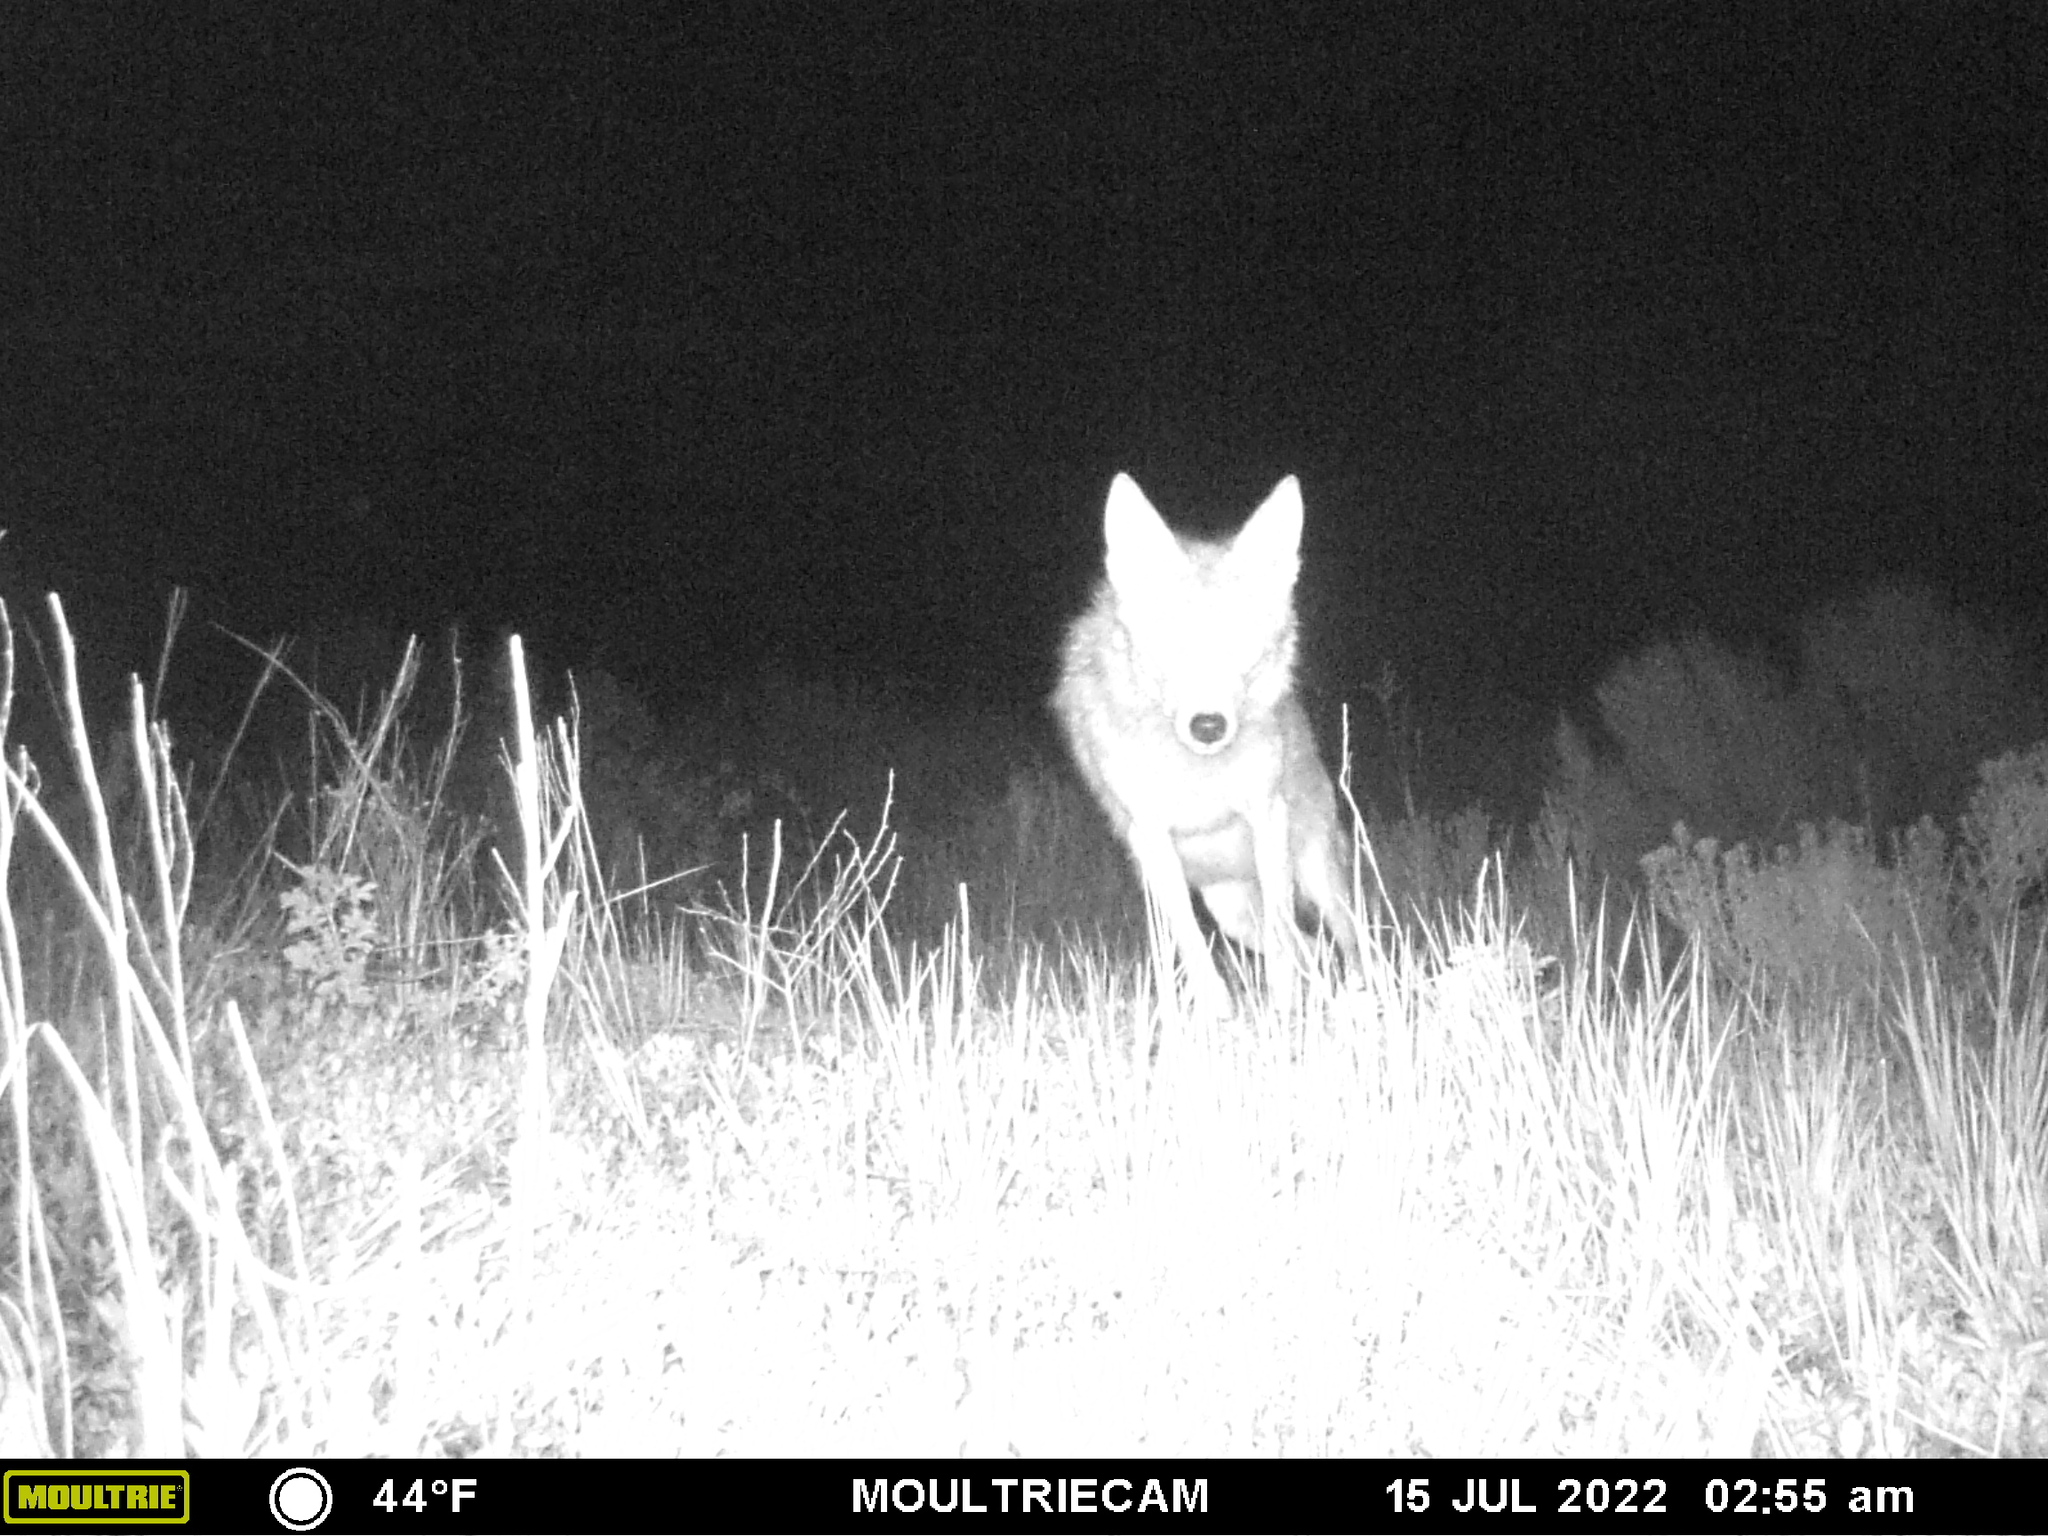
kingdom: Animalia
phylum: Chordata
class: Mammalia
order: Carnivora
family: Canidae
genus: Canis
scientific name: Canis latrans
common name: Coyote
